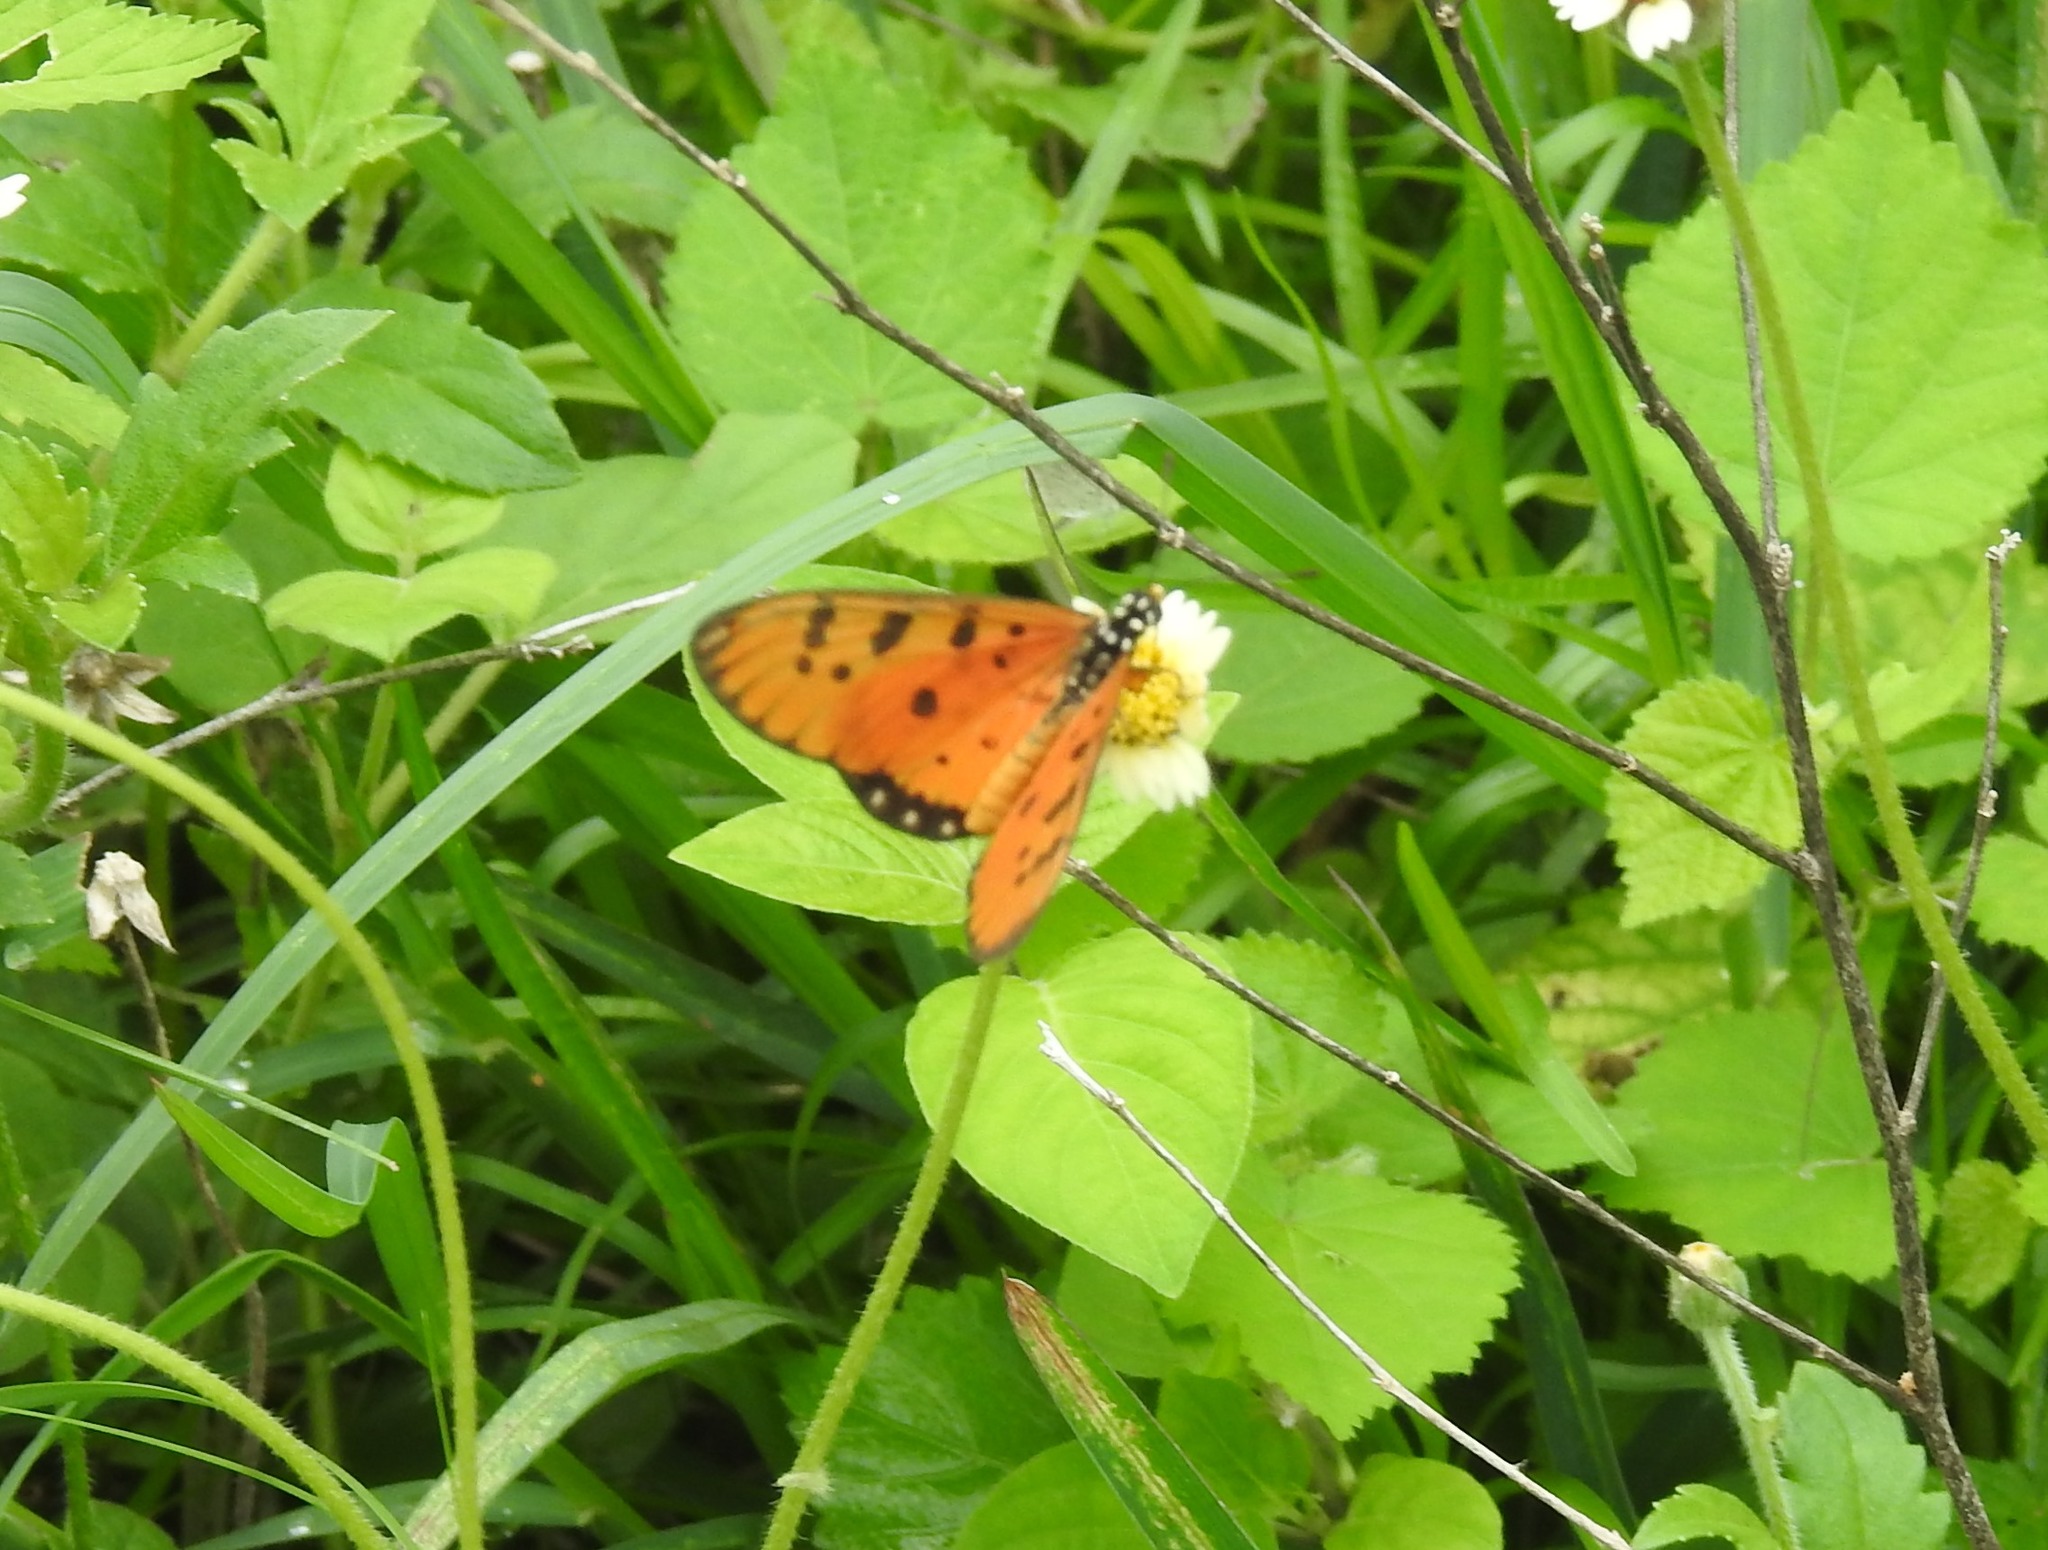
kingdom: Animalia
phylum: Arthropoda
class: Insecta
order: Lepidoptera
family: Nymphalidae
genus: Acraea
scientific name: Acraea terpsicore
